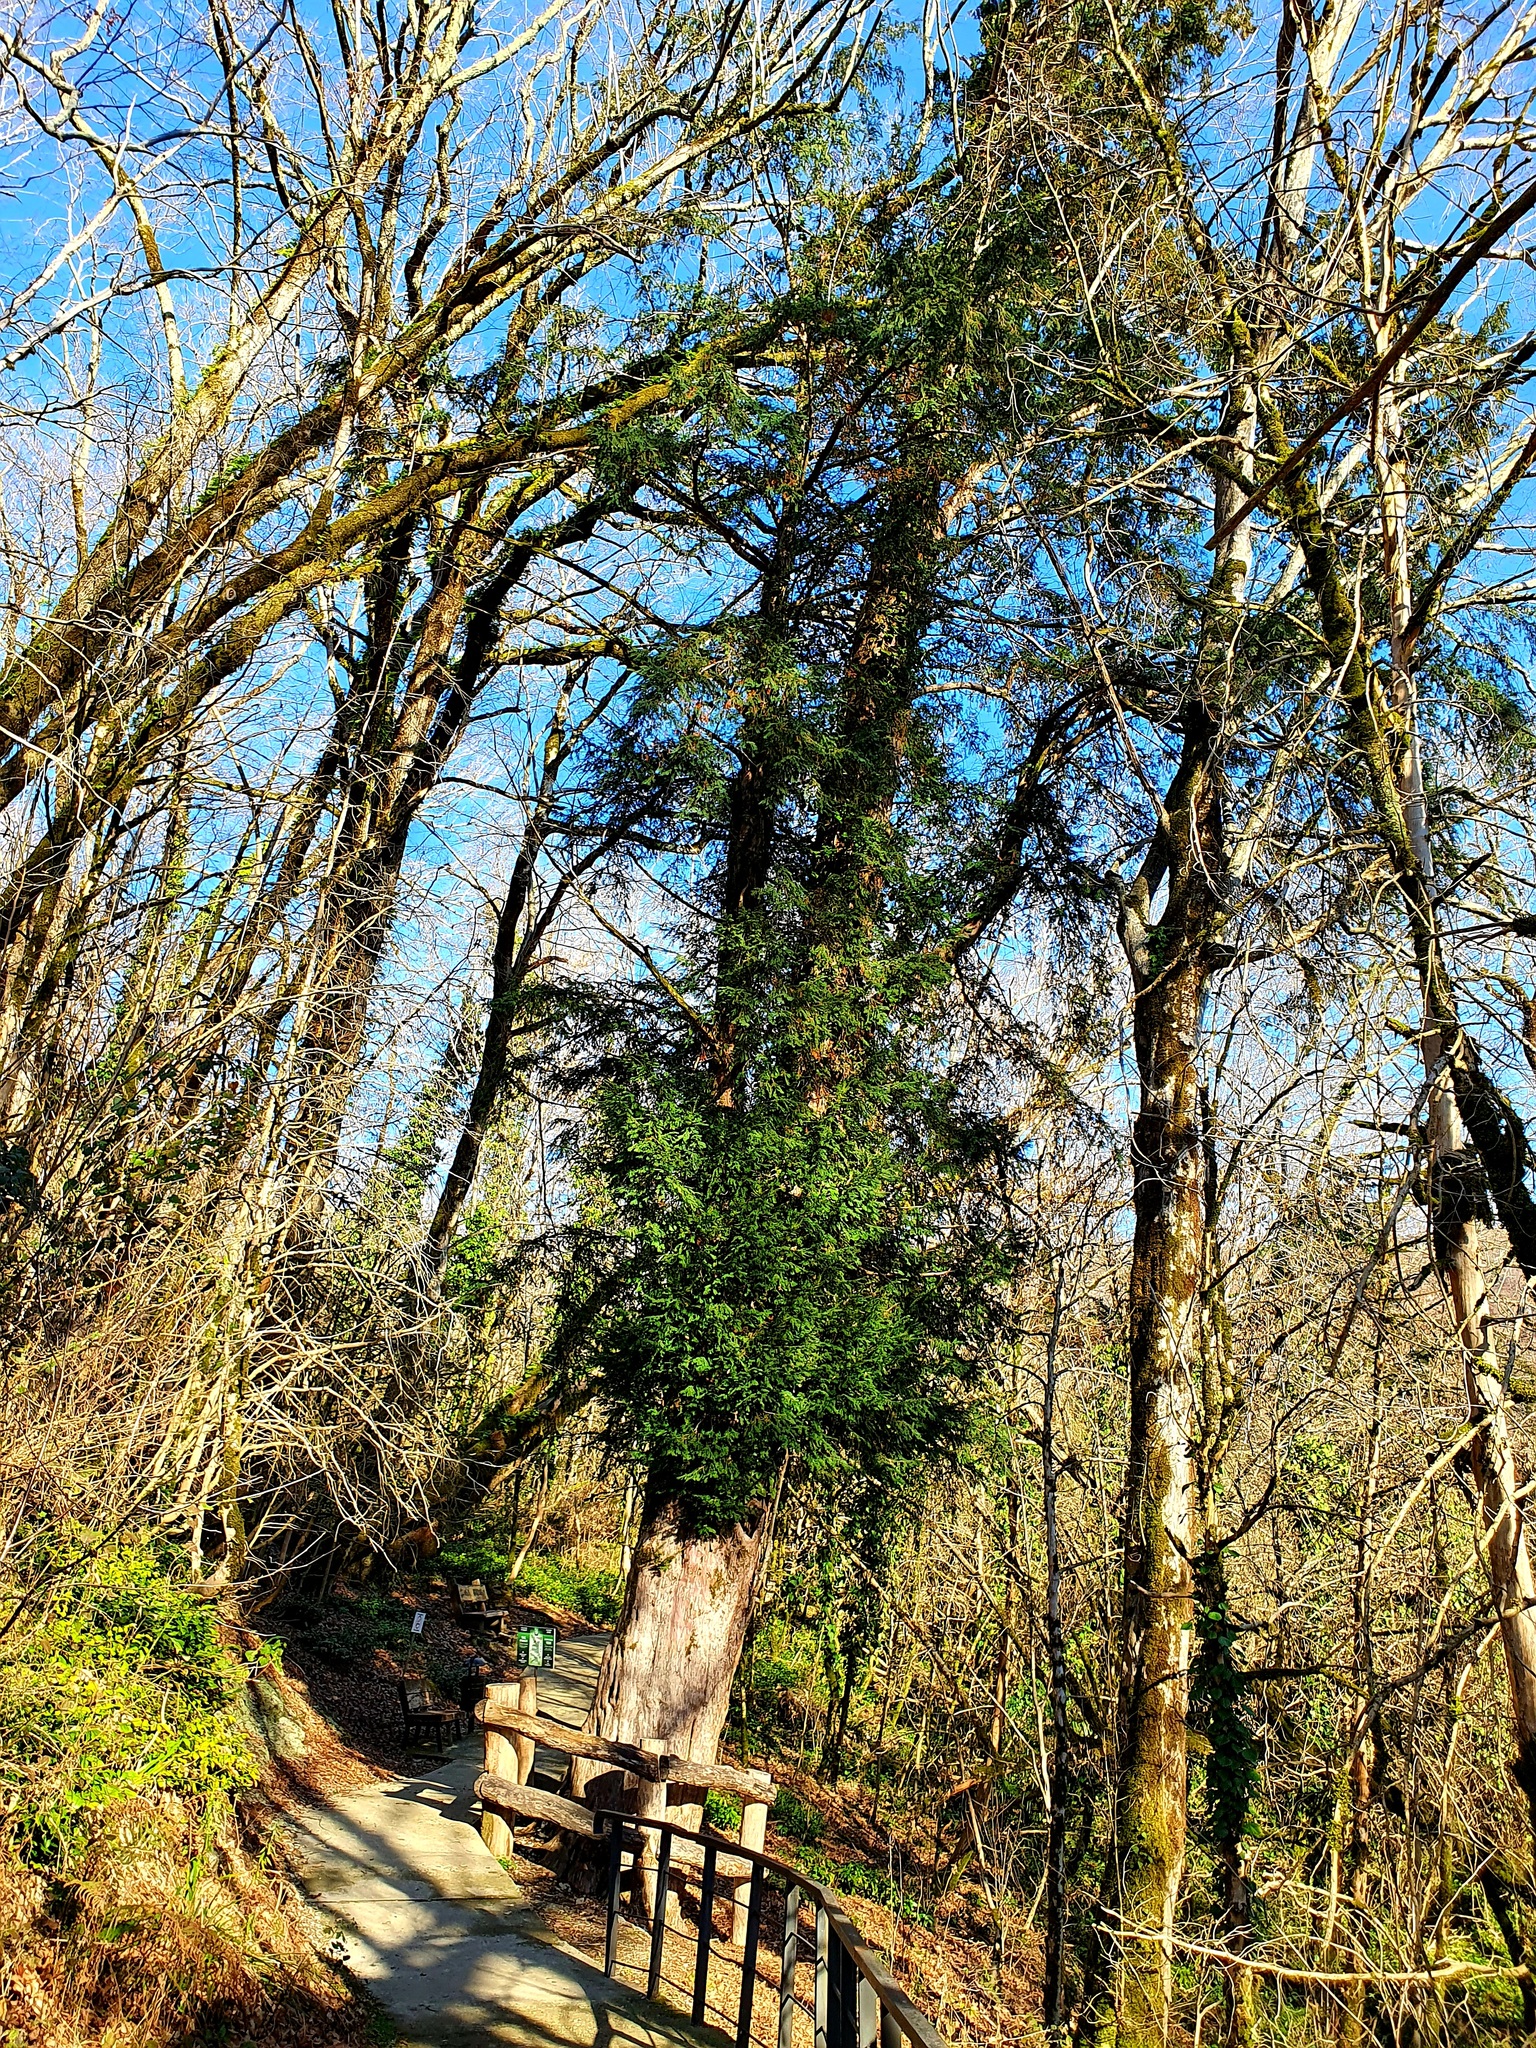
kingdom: Plantae
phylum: Tracheophyta
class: Pinopsida
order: Pinales
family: Taxaceae
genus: Taxus
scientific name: Taxus baccata
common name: Yew
